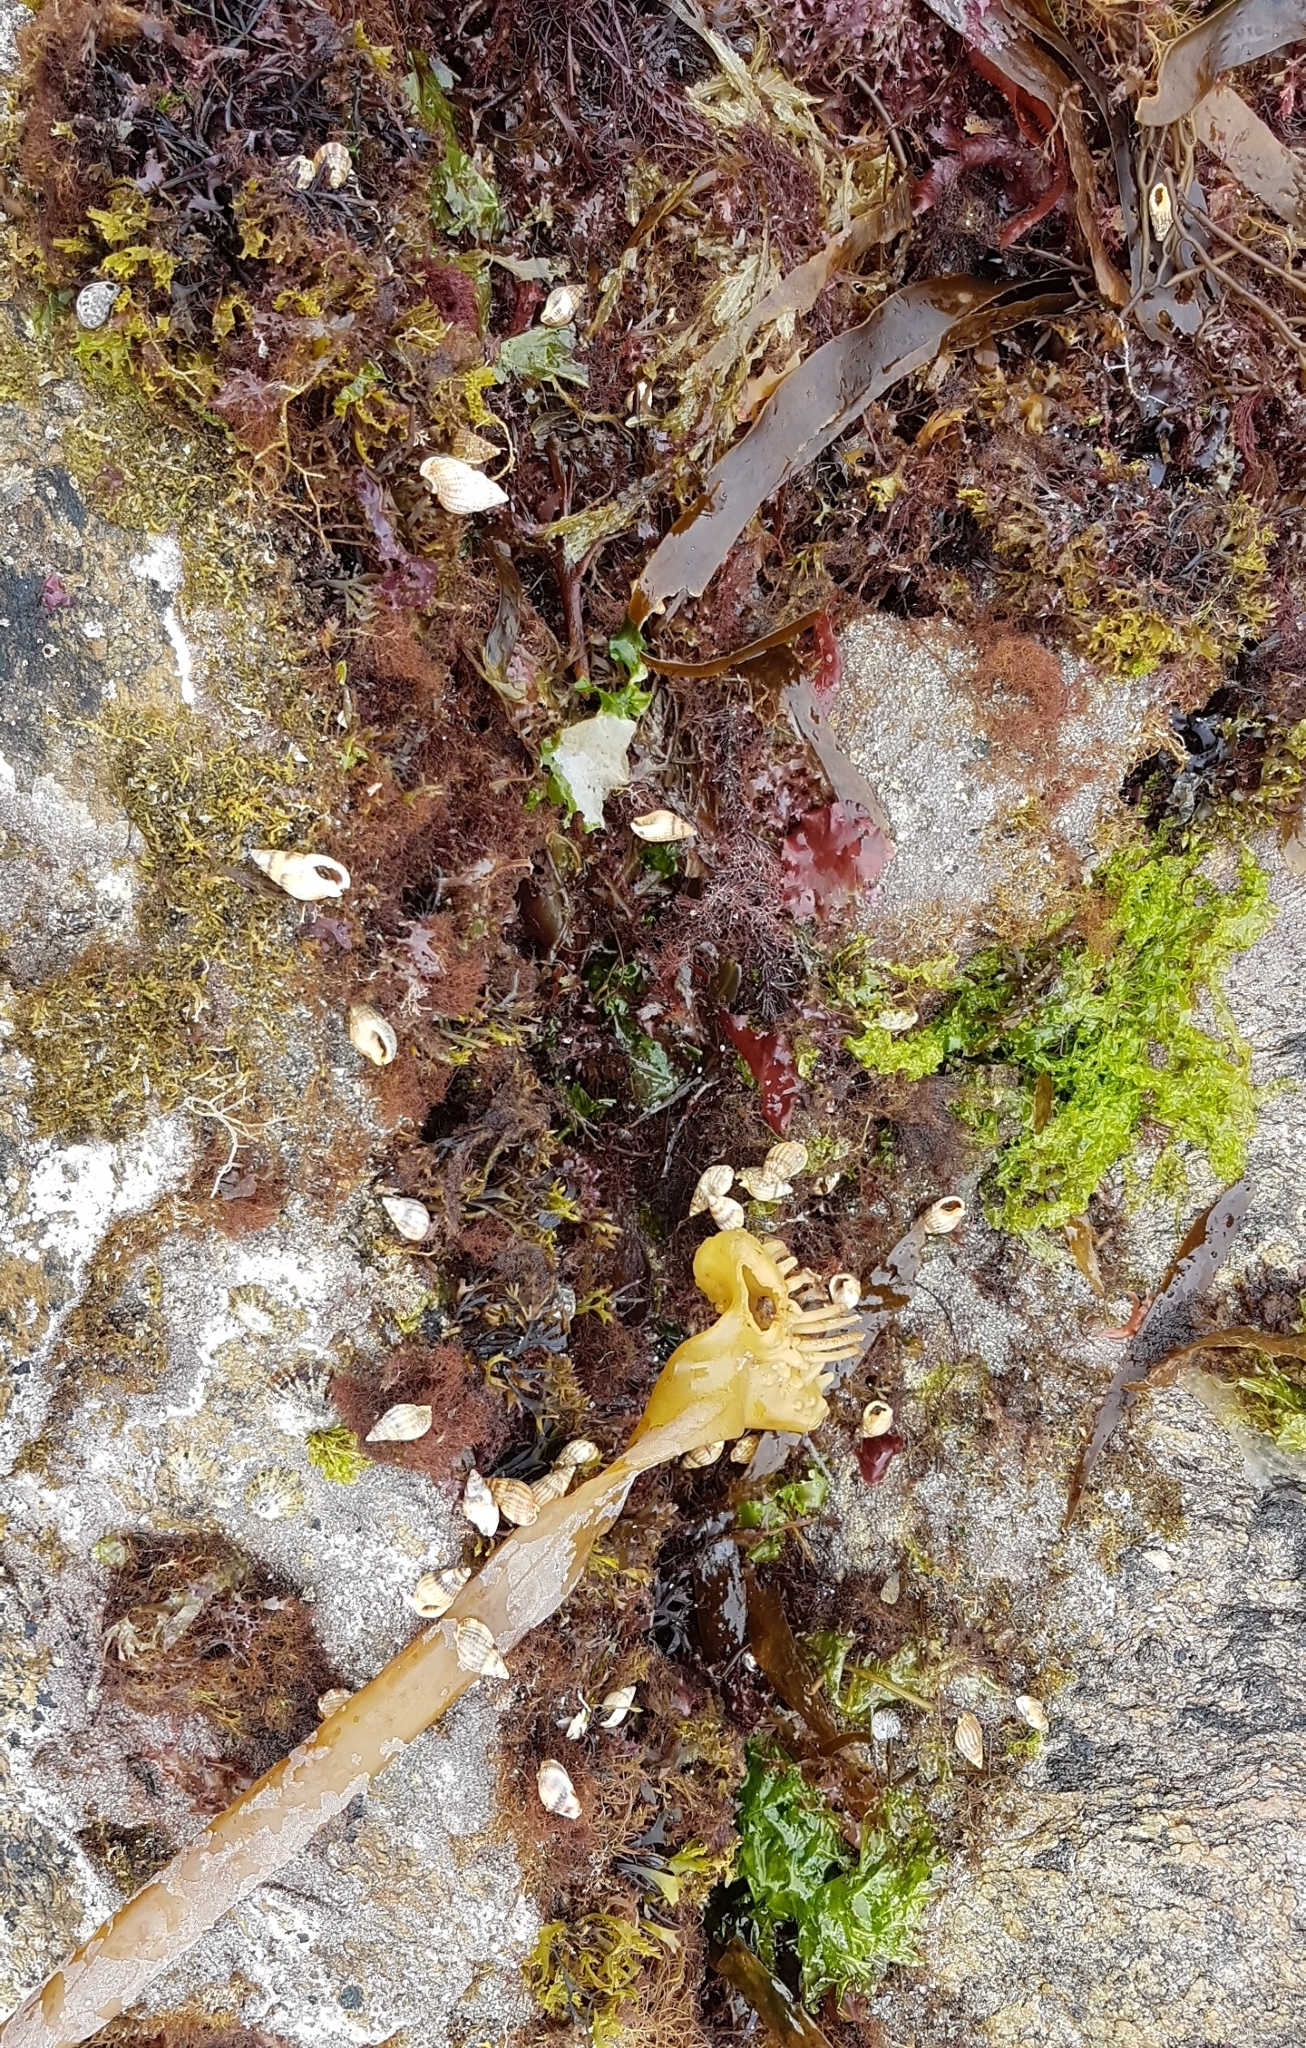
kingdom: Animalia
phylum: Arthropoda
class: Malacostraca
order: Decapoda
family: Diogenidae
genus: Clibanarius
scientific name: Clibanarius erythropus
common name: Hermit crab
